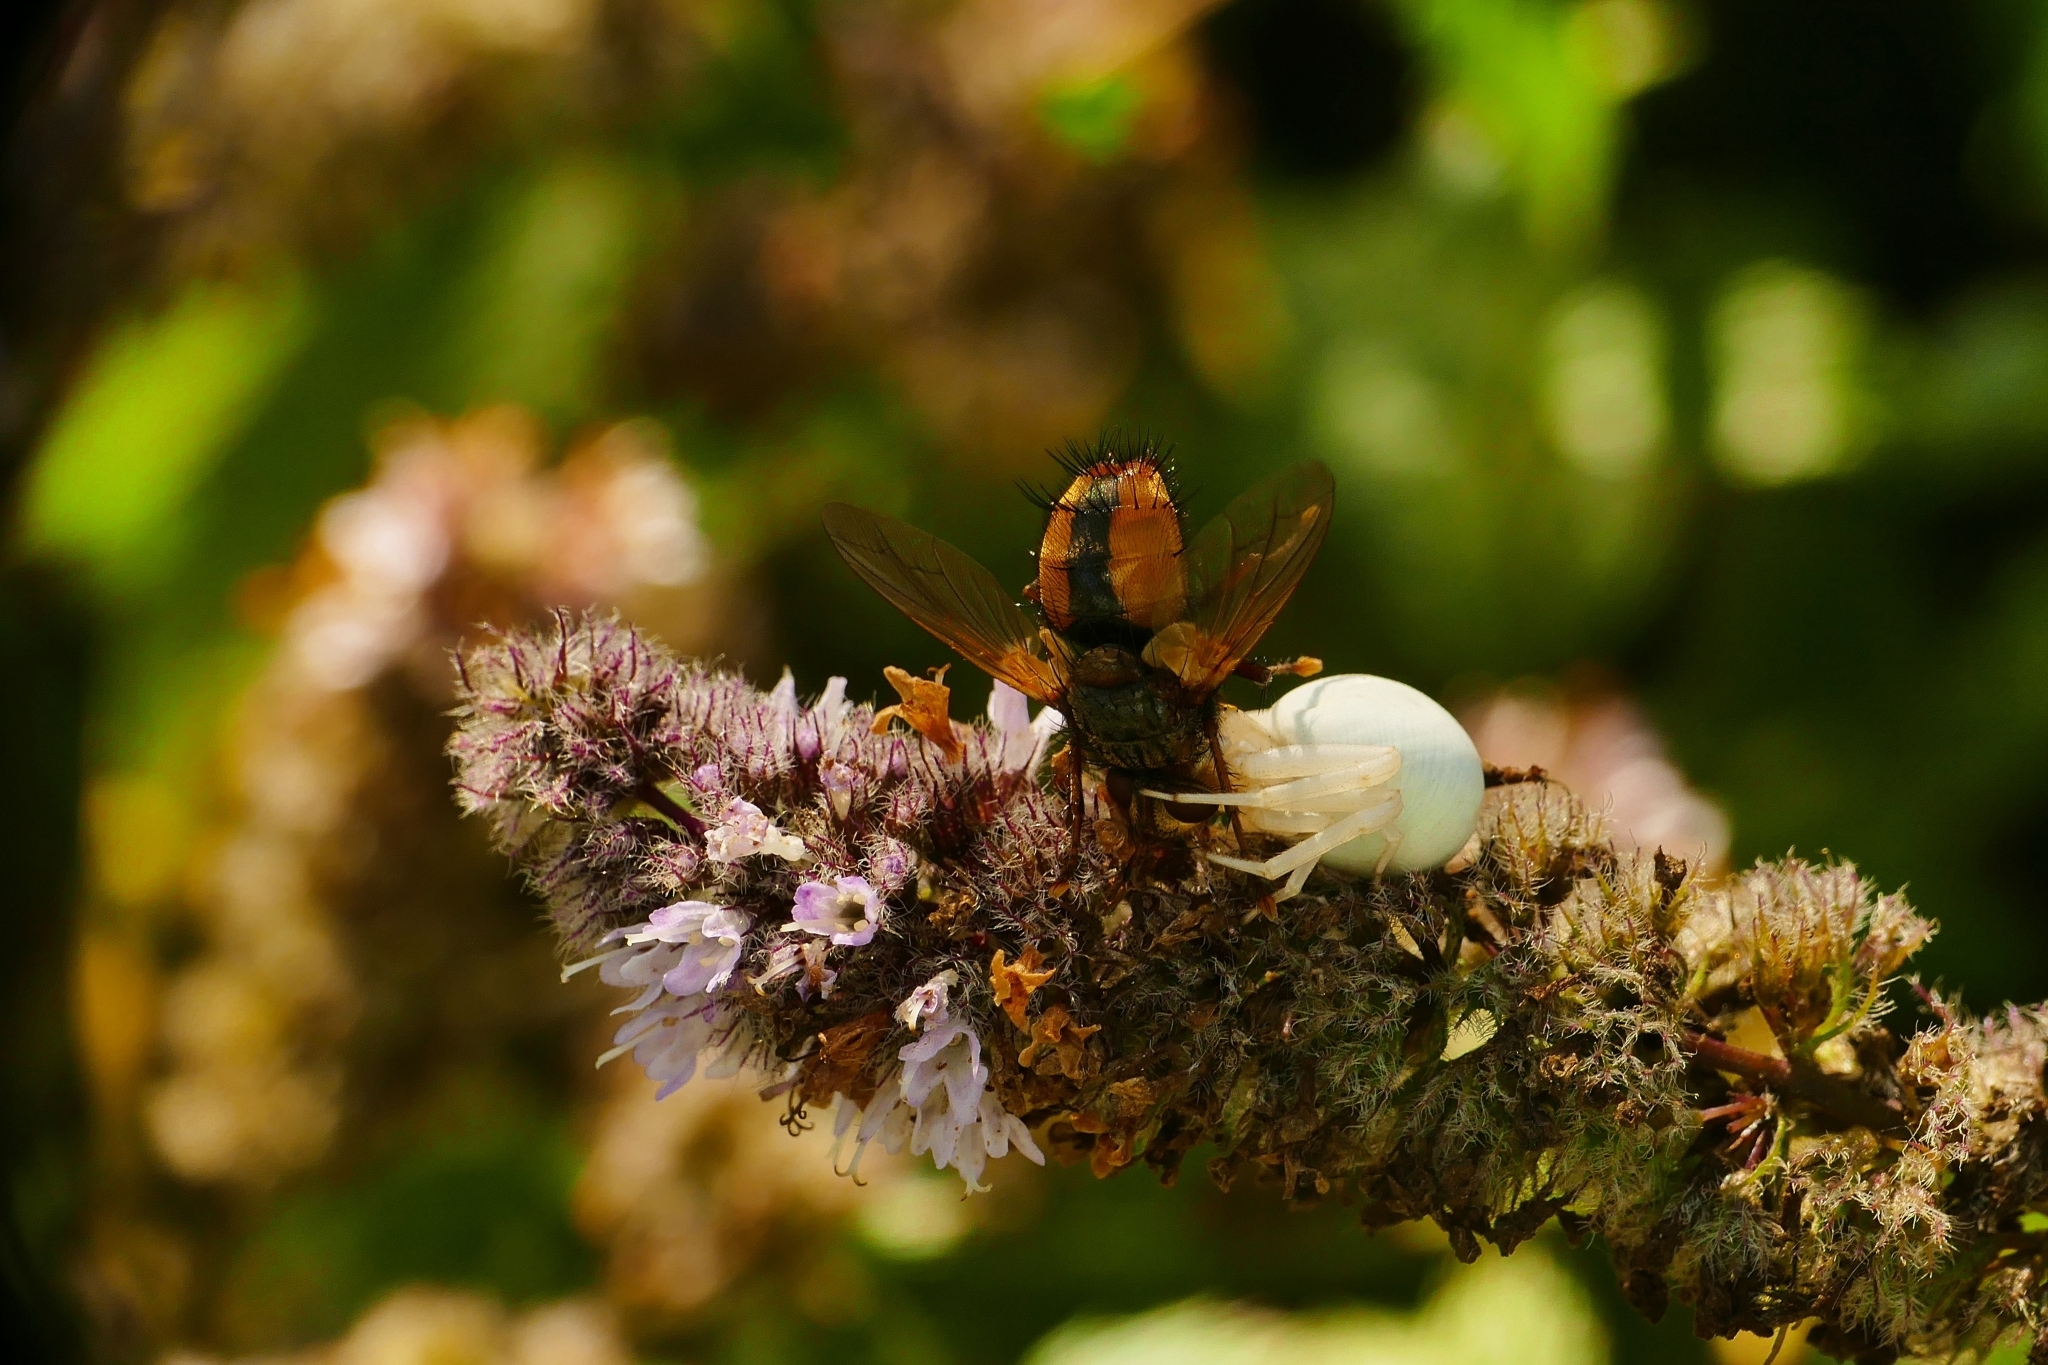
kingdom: Animalia
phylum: Arthropoda
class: Arachnida
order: Araneae
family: Thomisidae
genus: Misumena
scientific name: Misumena vatia
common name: Goldenrod crab spider
